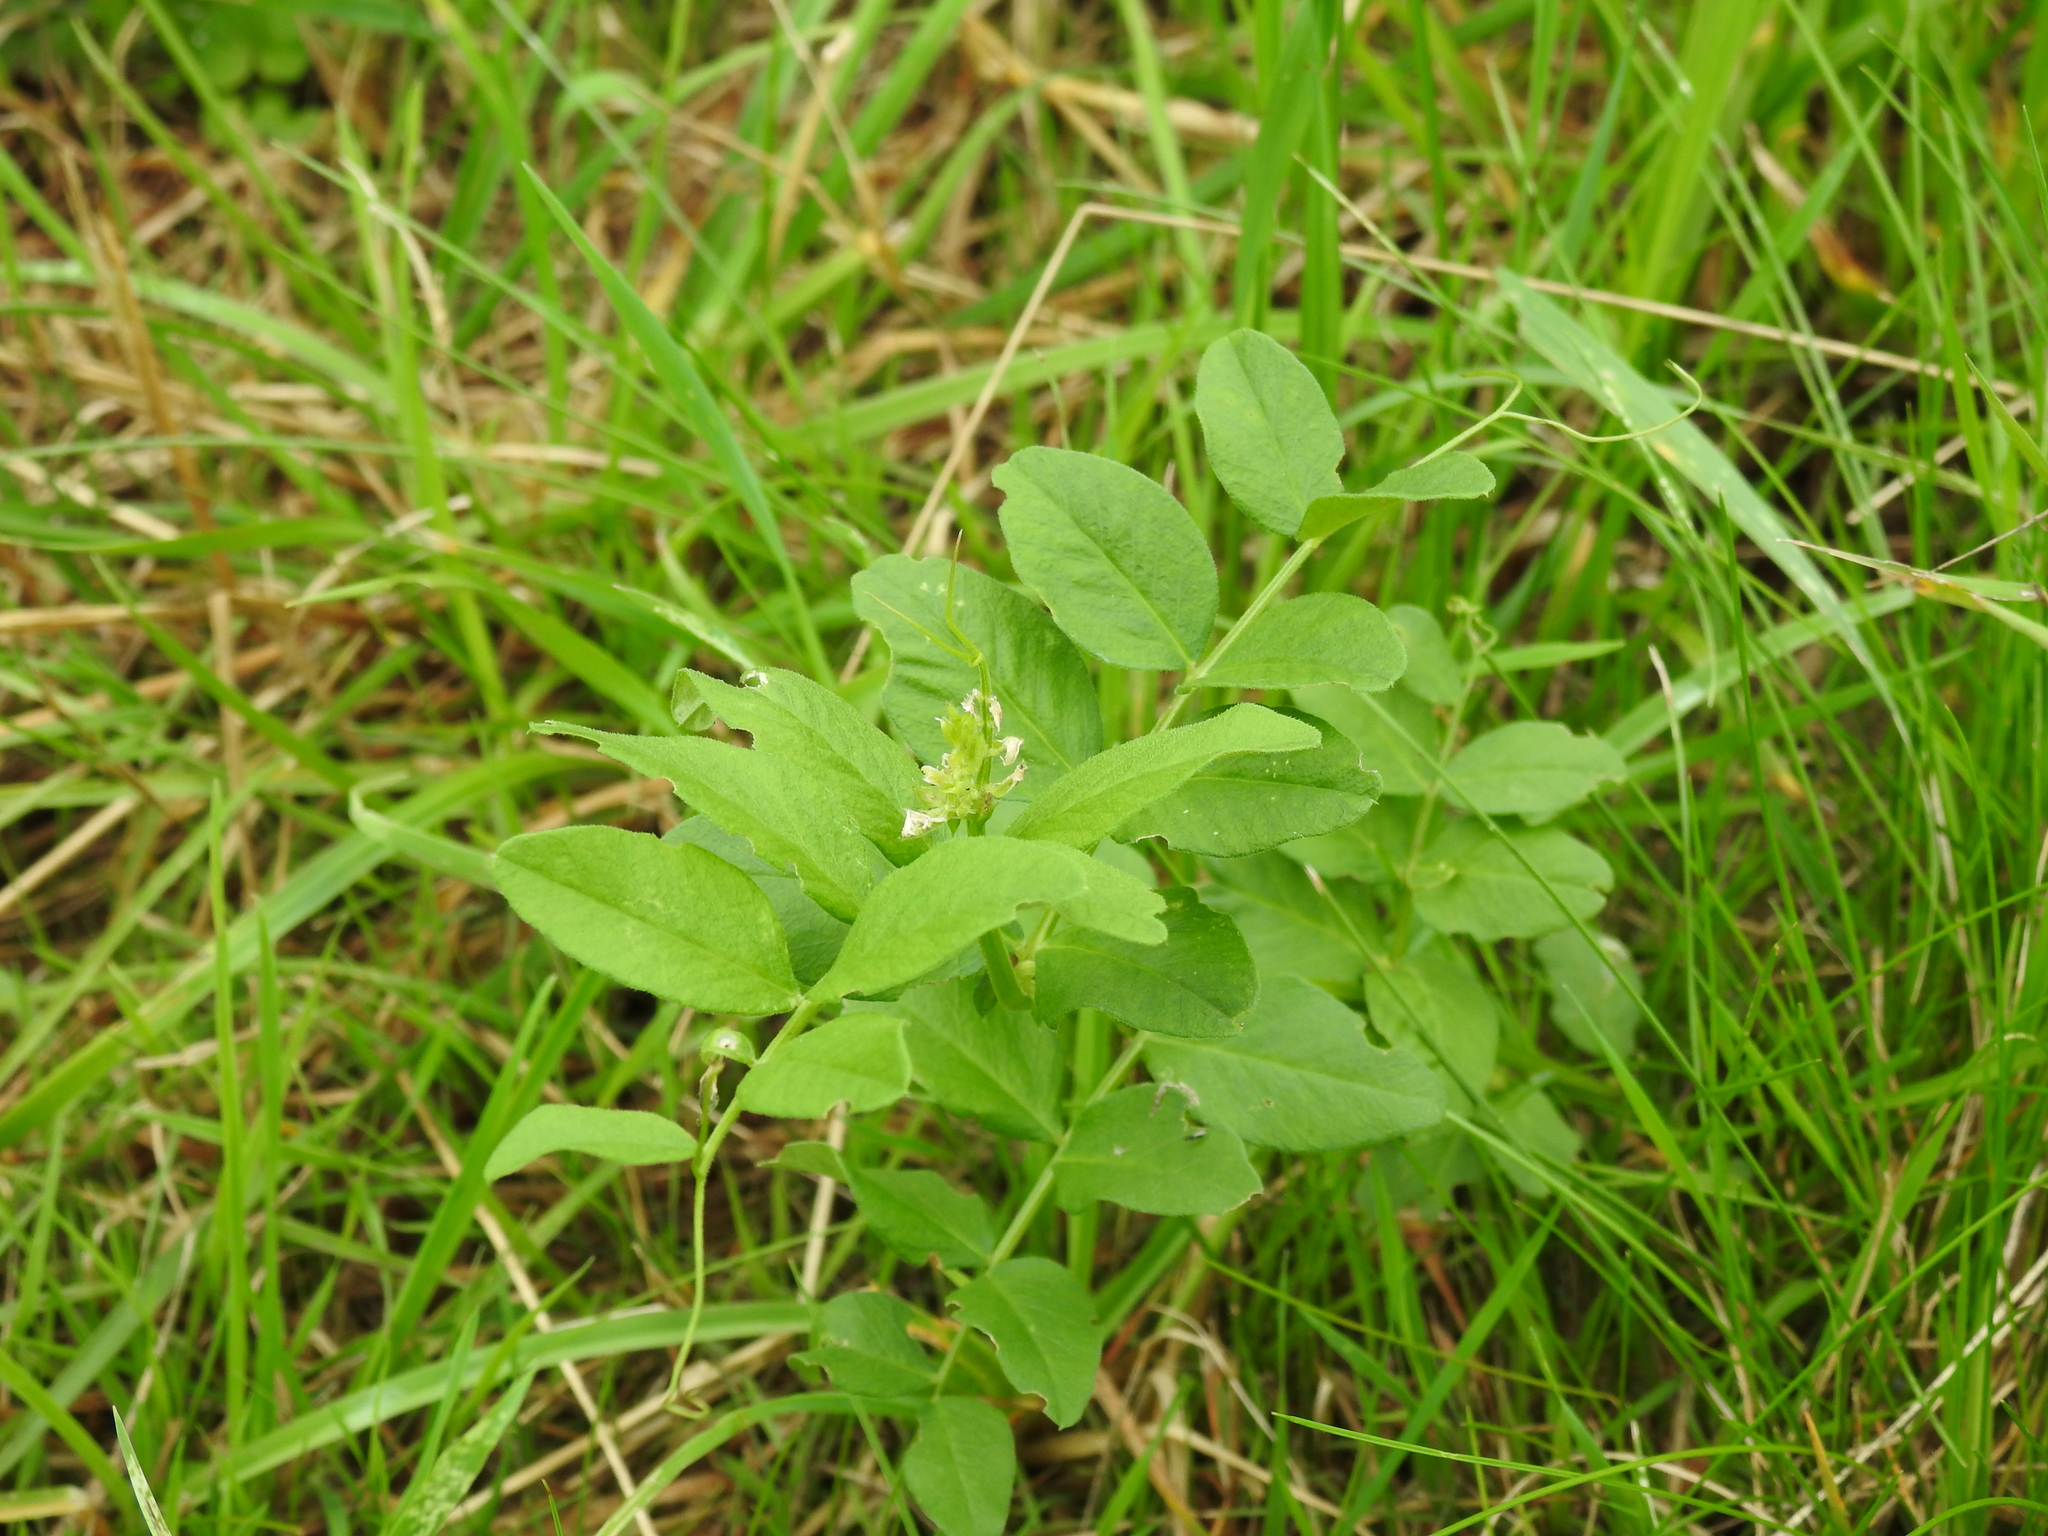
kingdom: Plantae
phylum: Tracheophyta
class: Magnoliopsida
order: Fabales
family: Fabaceae
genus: Vicia
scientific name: Vicia sepium
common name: Bush vetch
